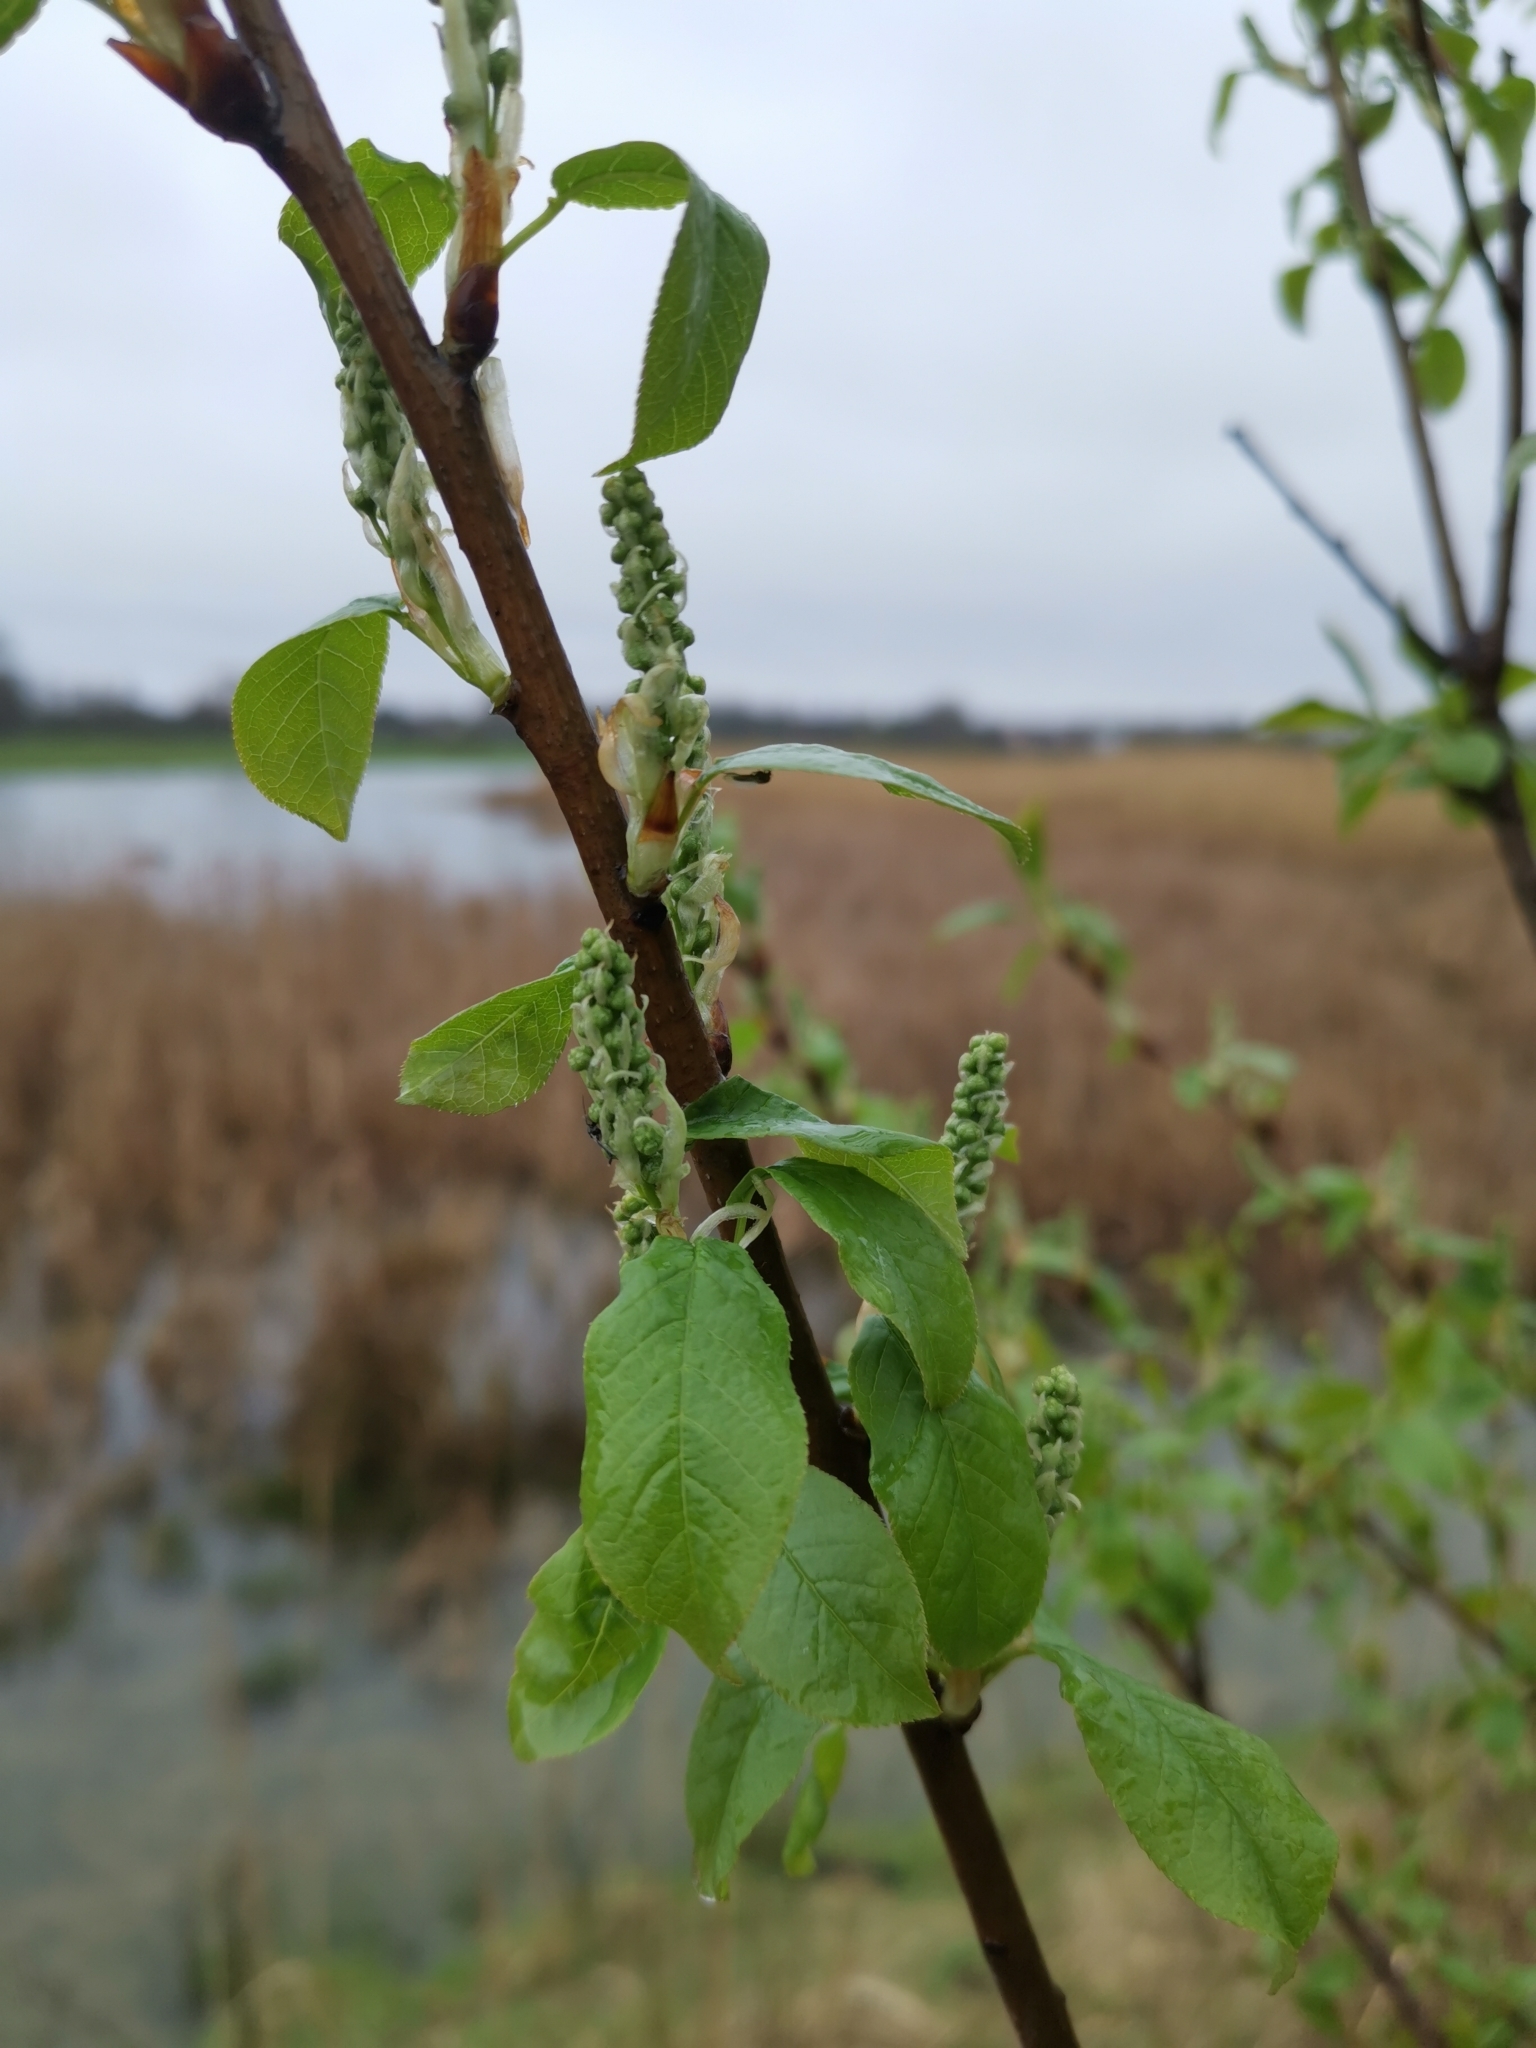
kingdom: Plantae
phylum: Tracheophyta
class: Magnoliopsida
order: Rosales
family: Rosaceae
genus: Prunus
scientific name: Prunus padus
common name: Bird cherry
